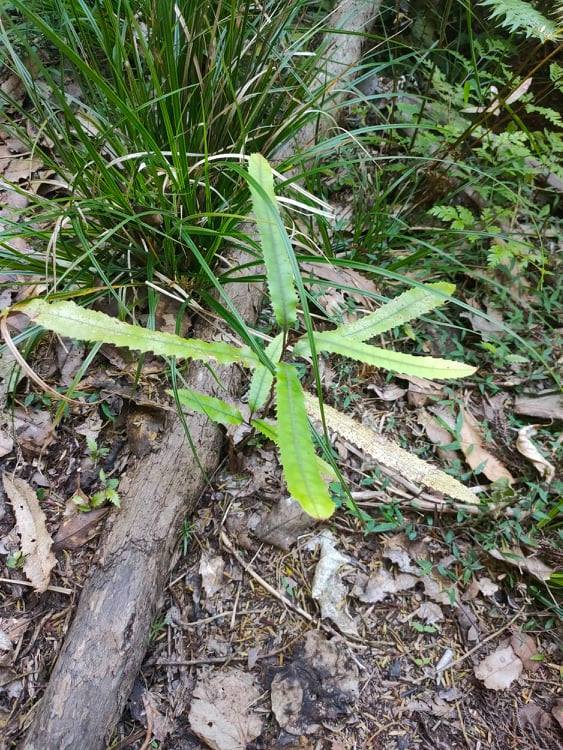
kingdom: Plantae
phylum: Tracheophyta
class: Magnoliopsida
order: Proteales
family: Proteaceae
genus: Knightia
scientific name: Knightia excelsa
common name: New zealand-honeysuckle
